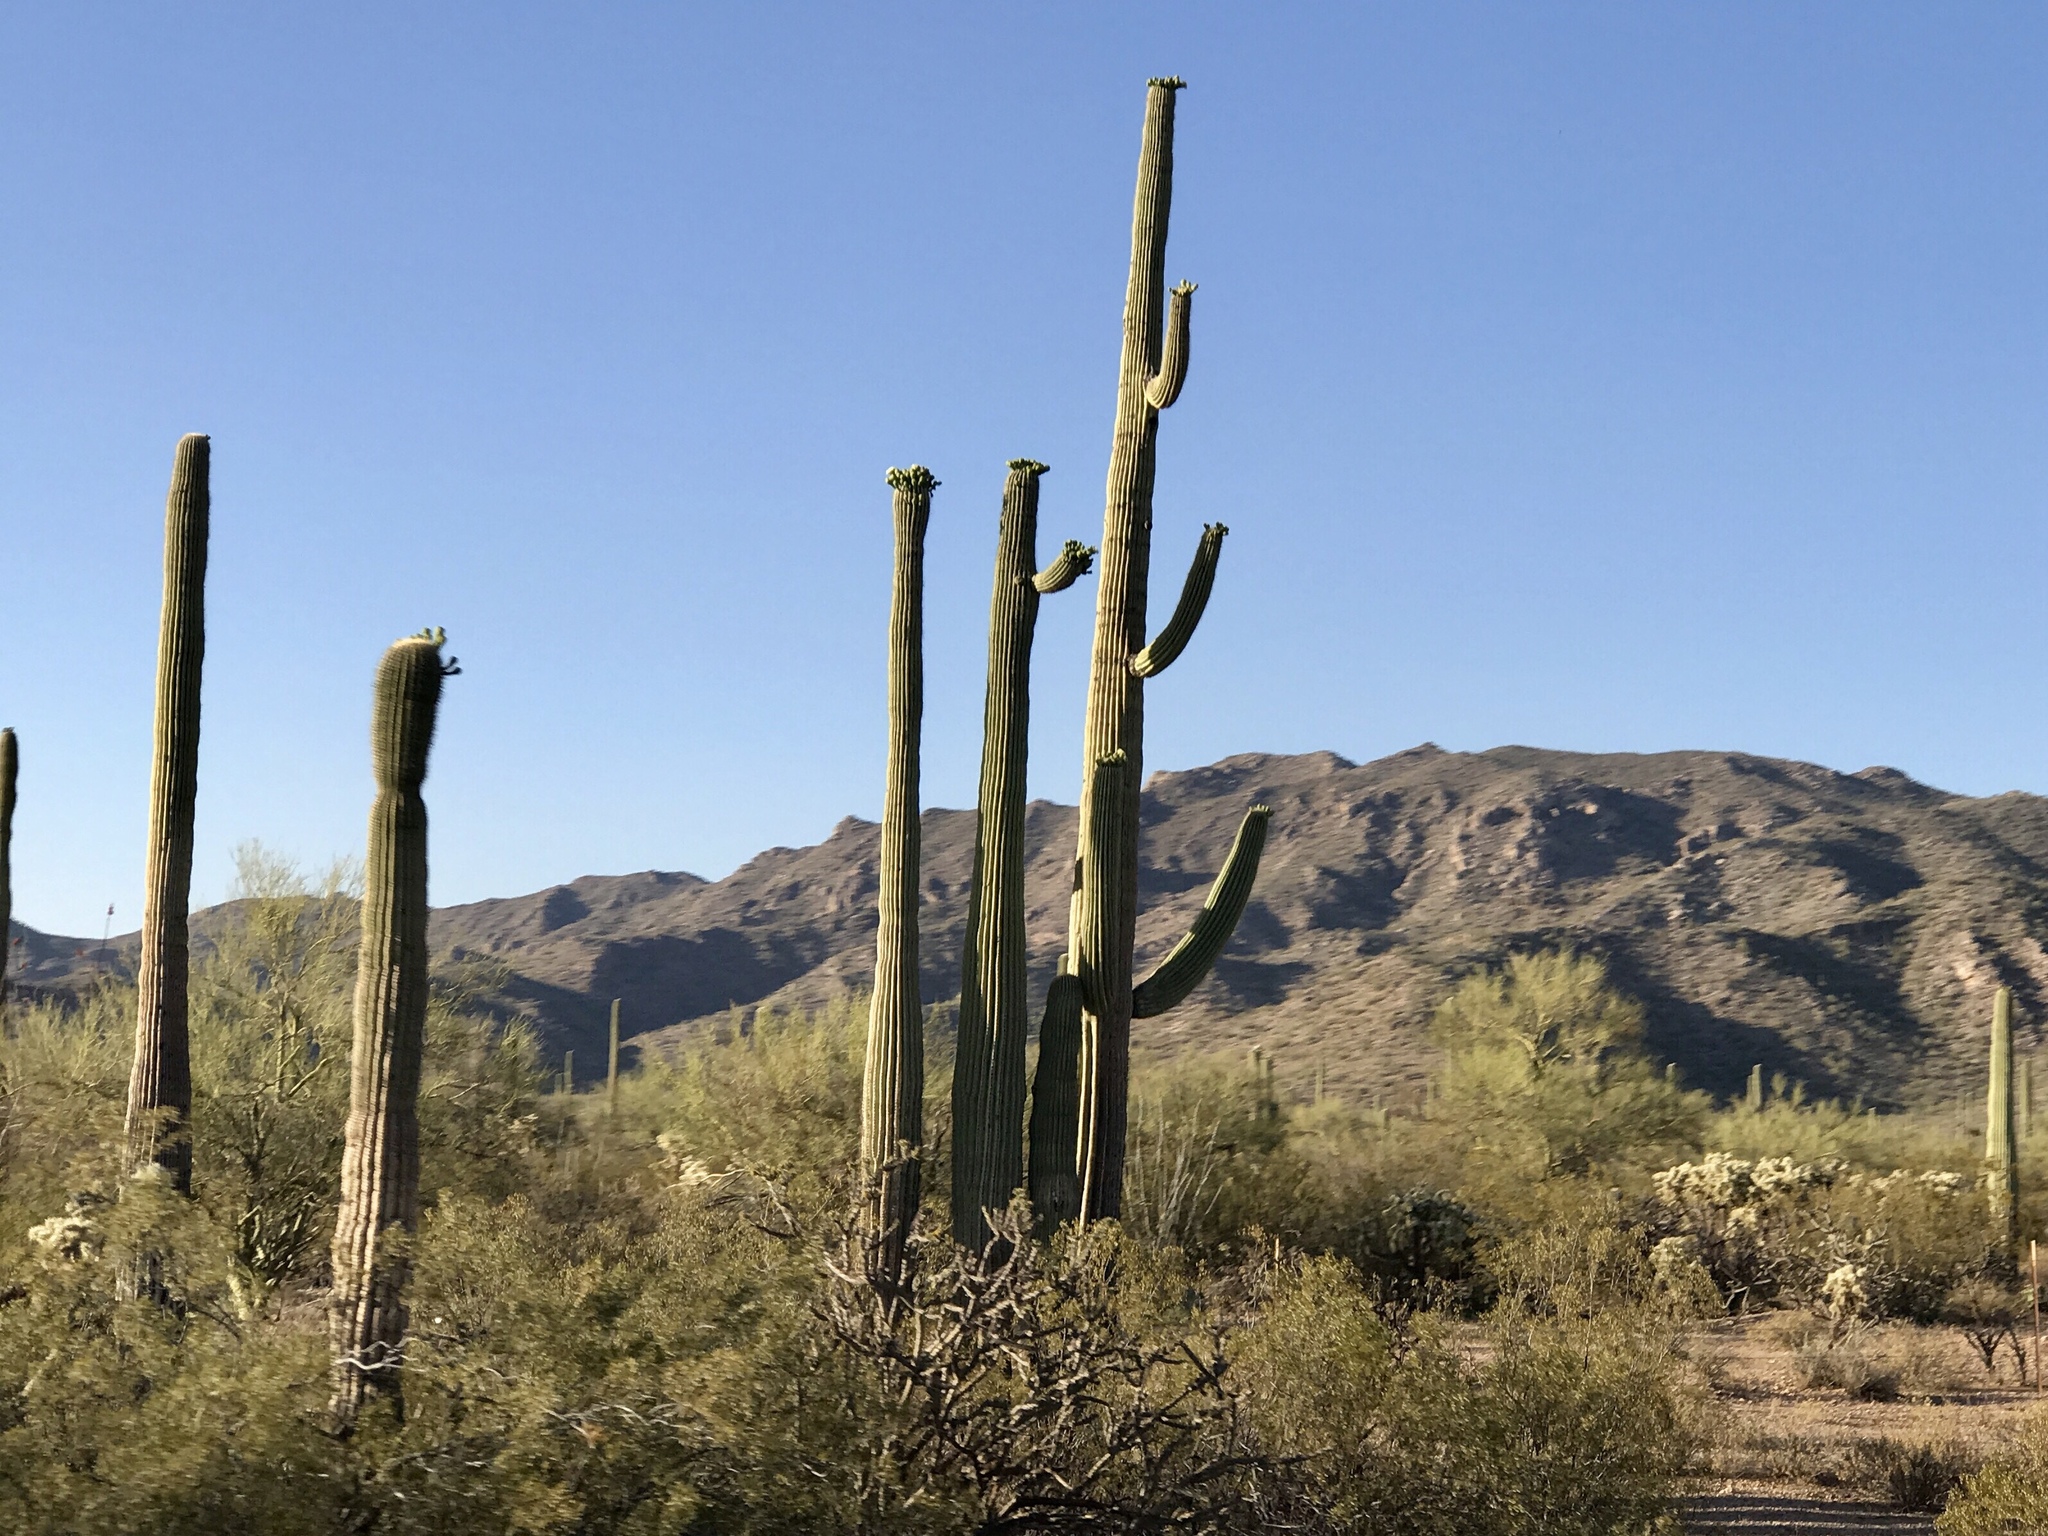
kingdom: Plantae
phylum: Tracheophyta
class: Magnoliopsida
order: Caryophyllales
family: Cactaceae
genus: Carnegiea
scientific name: Carnegiea gigantea
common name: Saguaro
